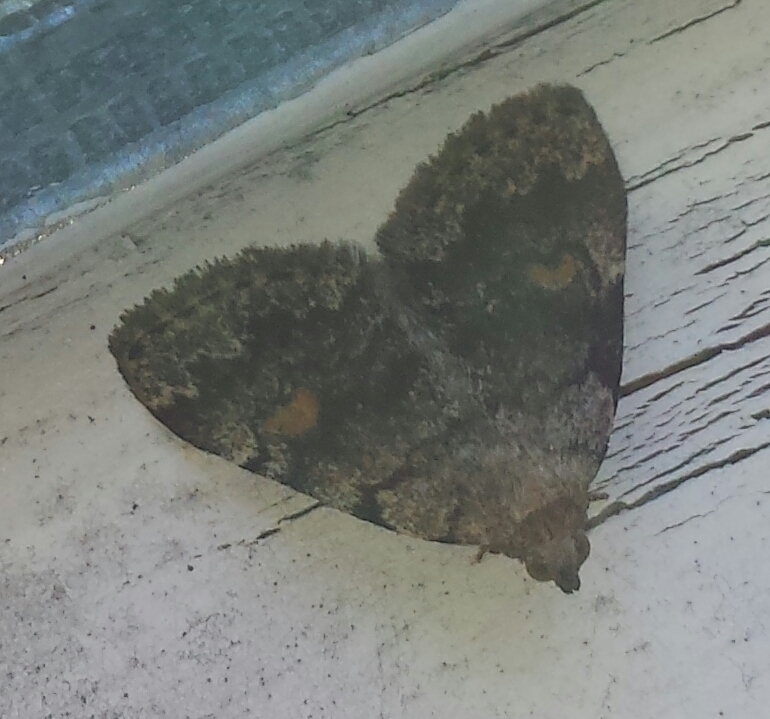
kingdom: Animalia
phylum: Arthropoda
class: Insecta
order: Lepidoptera
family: Erebidae
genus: Idia
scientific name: Idia aemula
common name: Common idia moth
